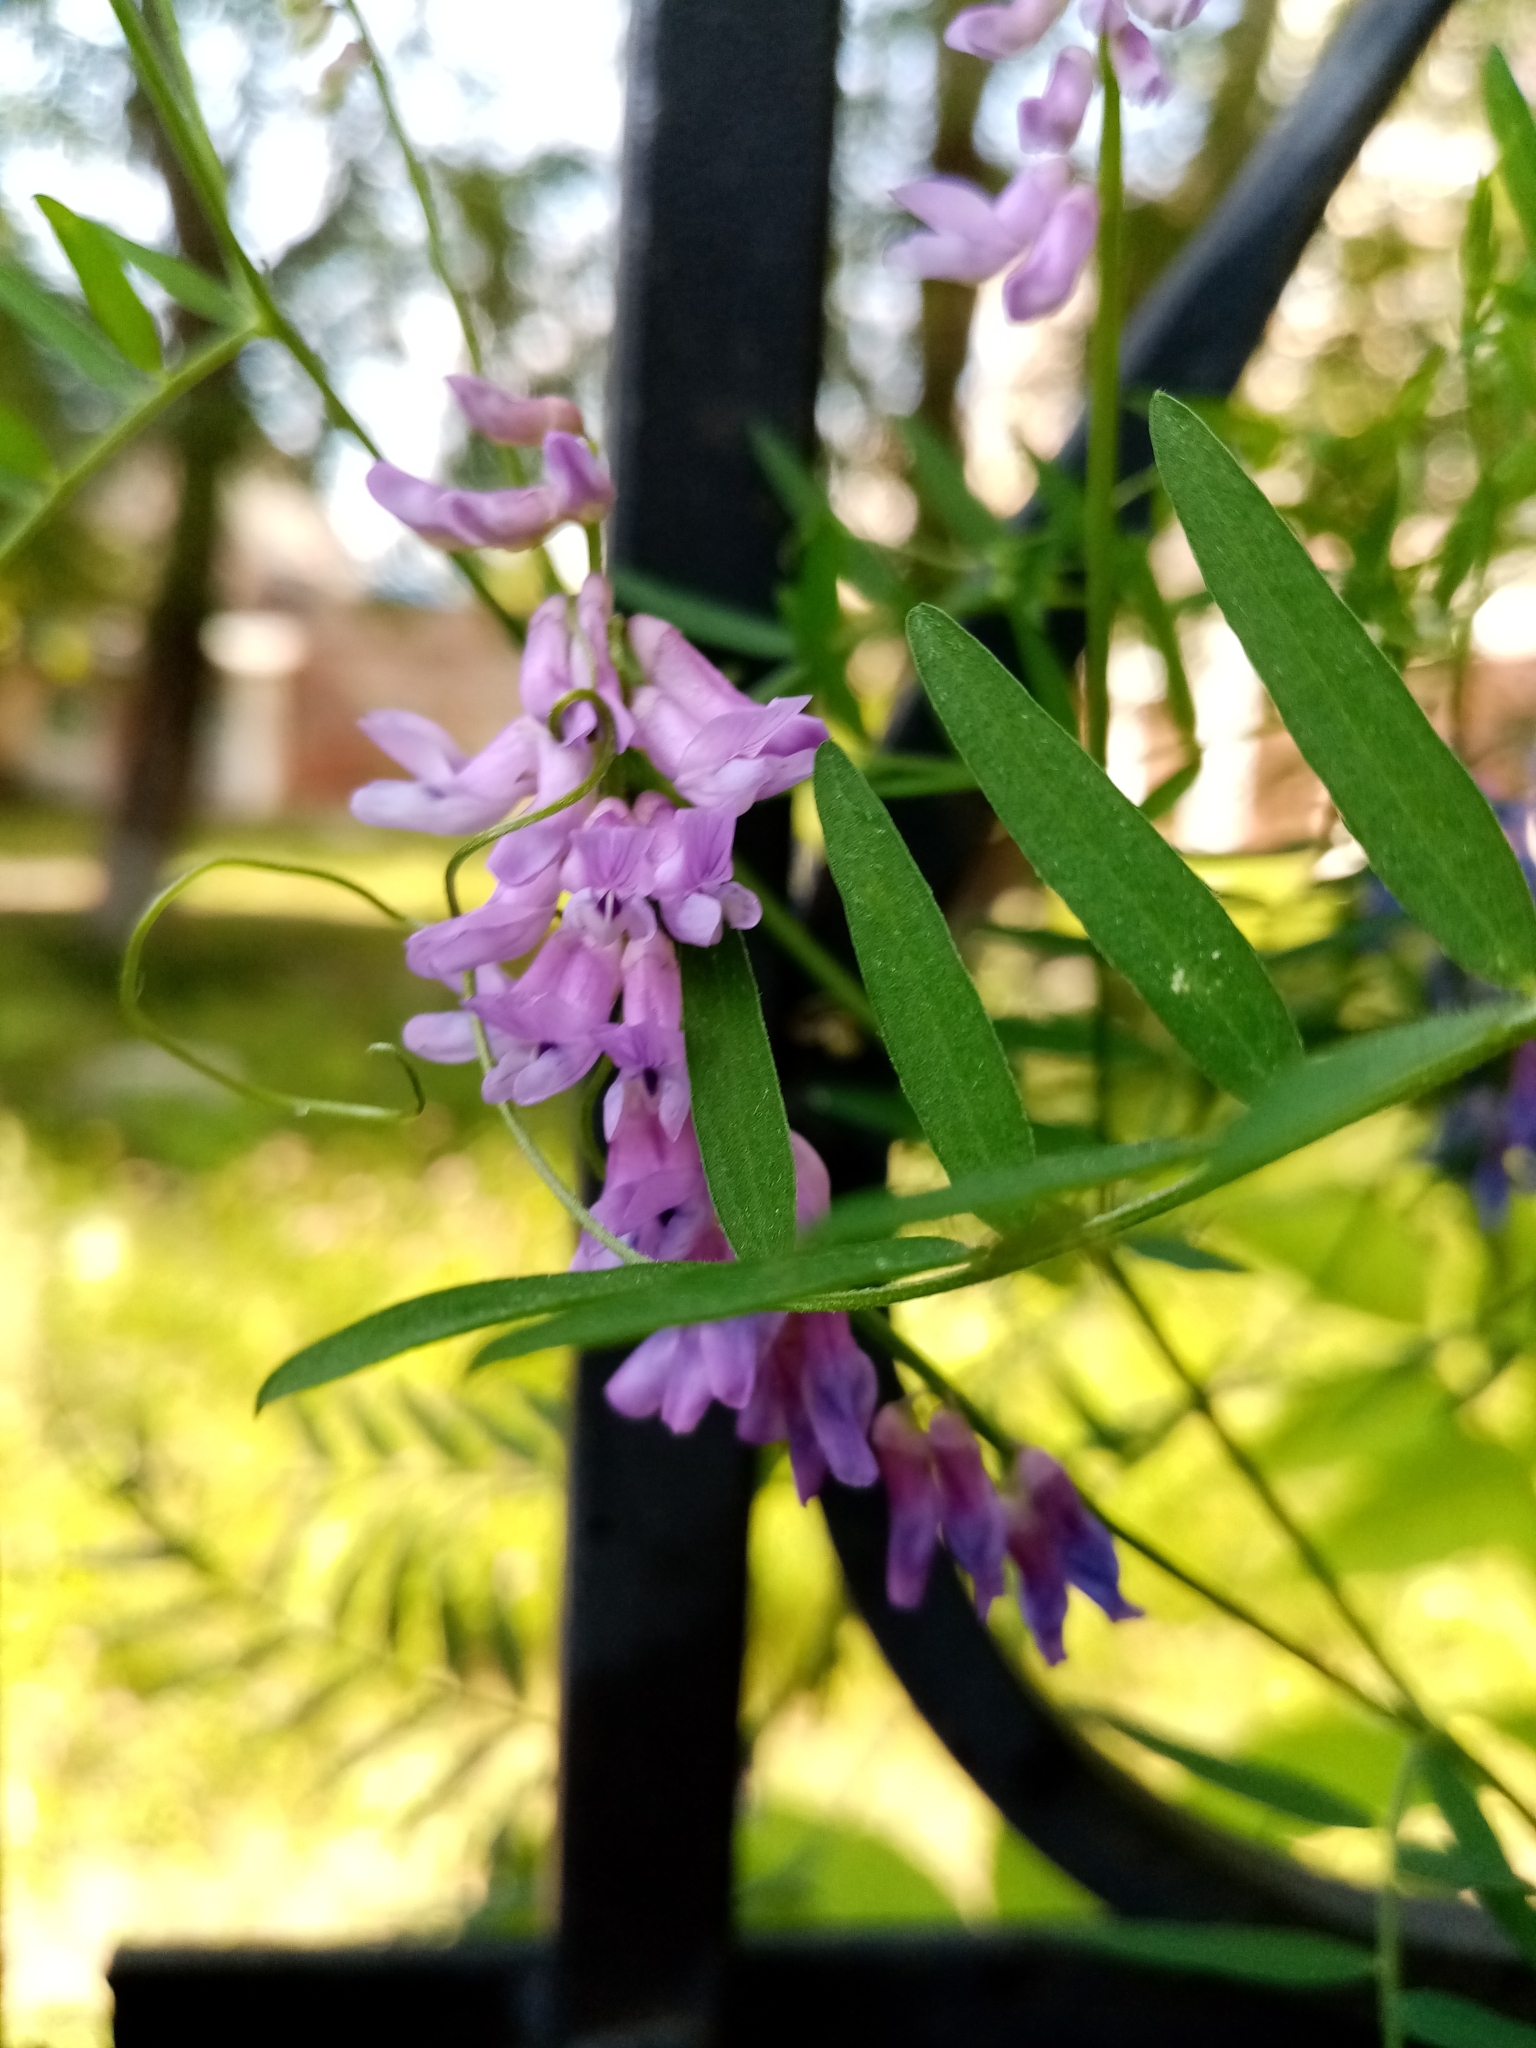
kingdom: Plantae
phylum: Tracheophyta
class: Magnoliopsida
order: Fabales
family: Fabaceae
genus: Vicia
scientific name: Vicia cracca
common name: Bird vetch
